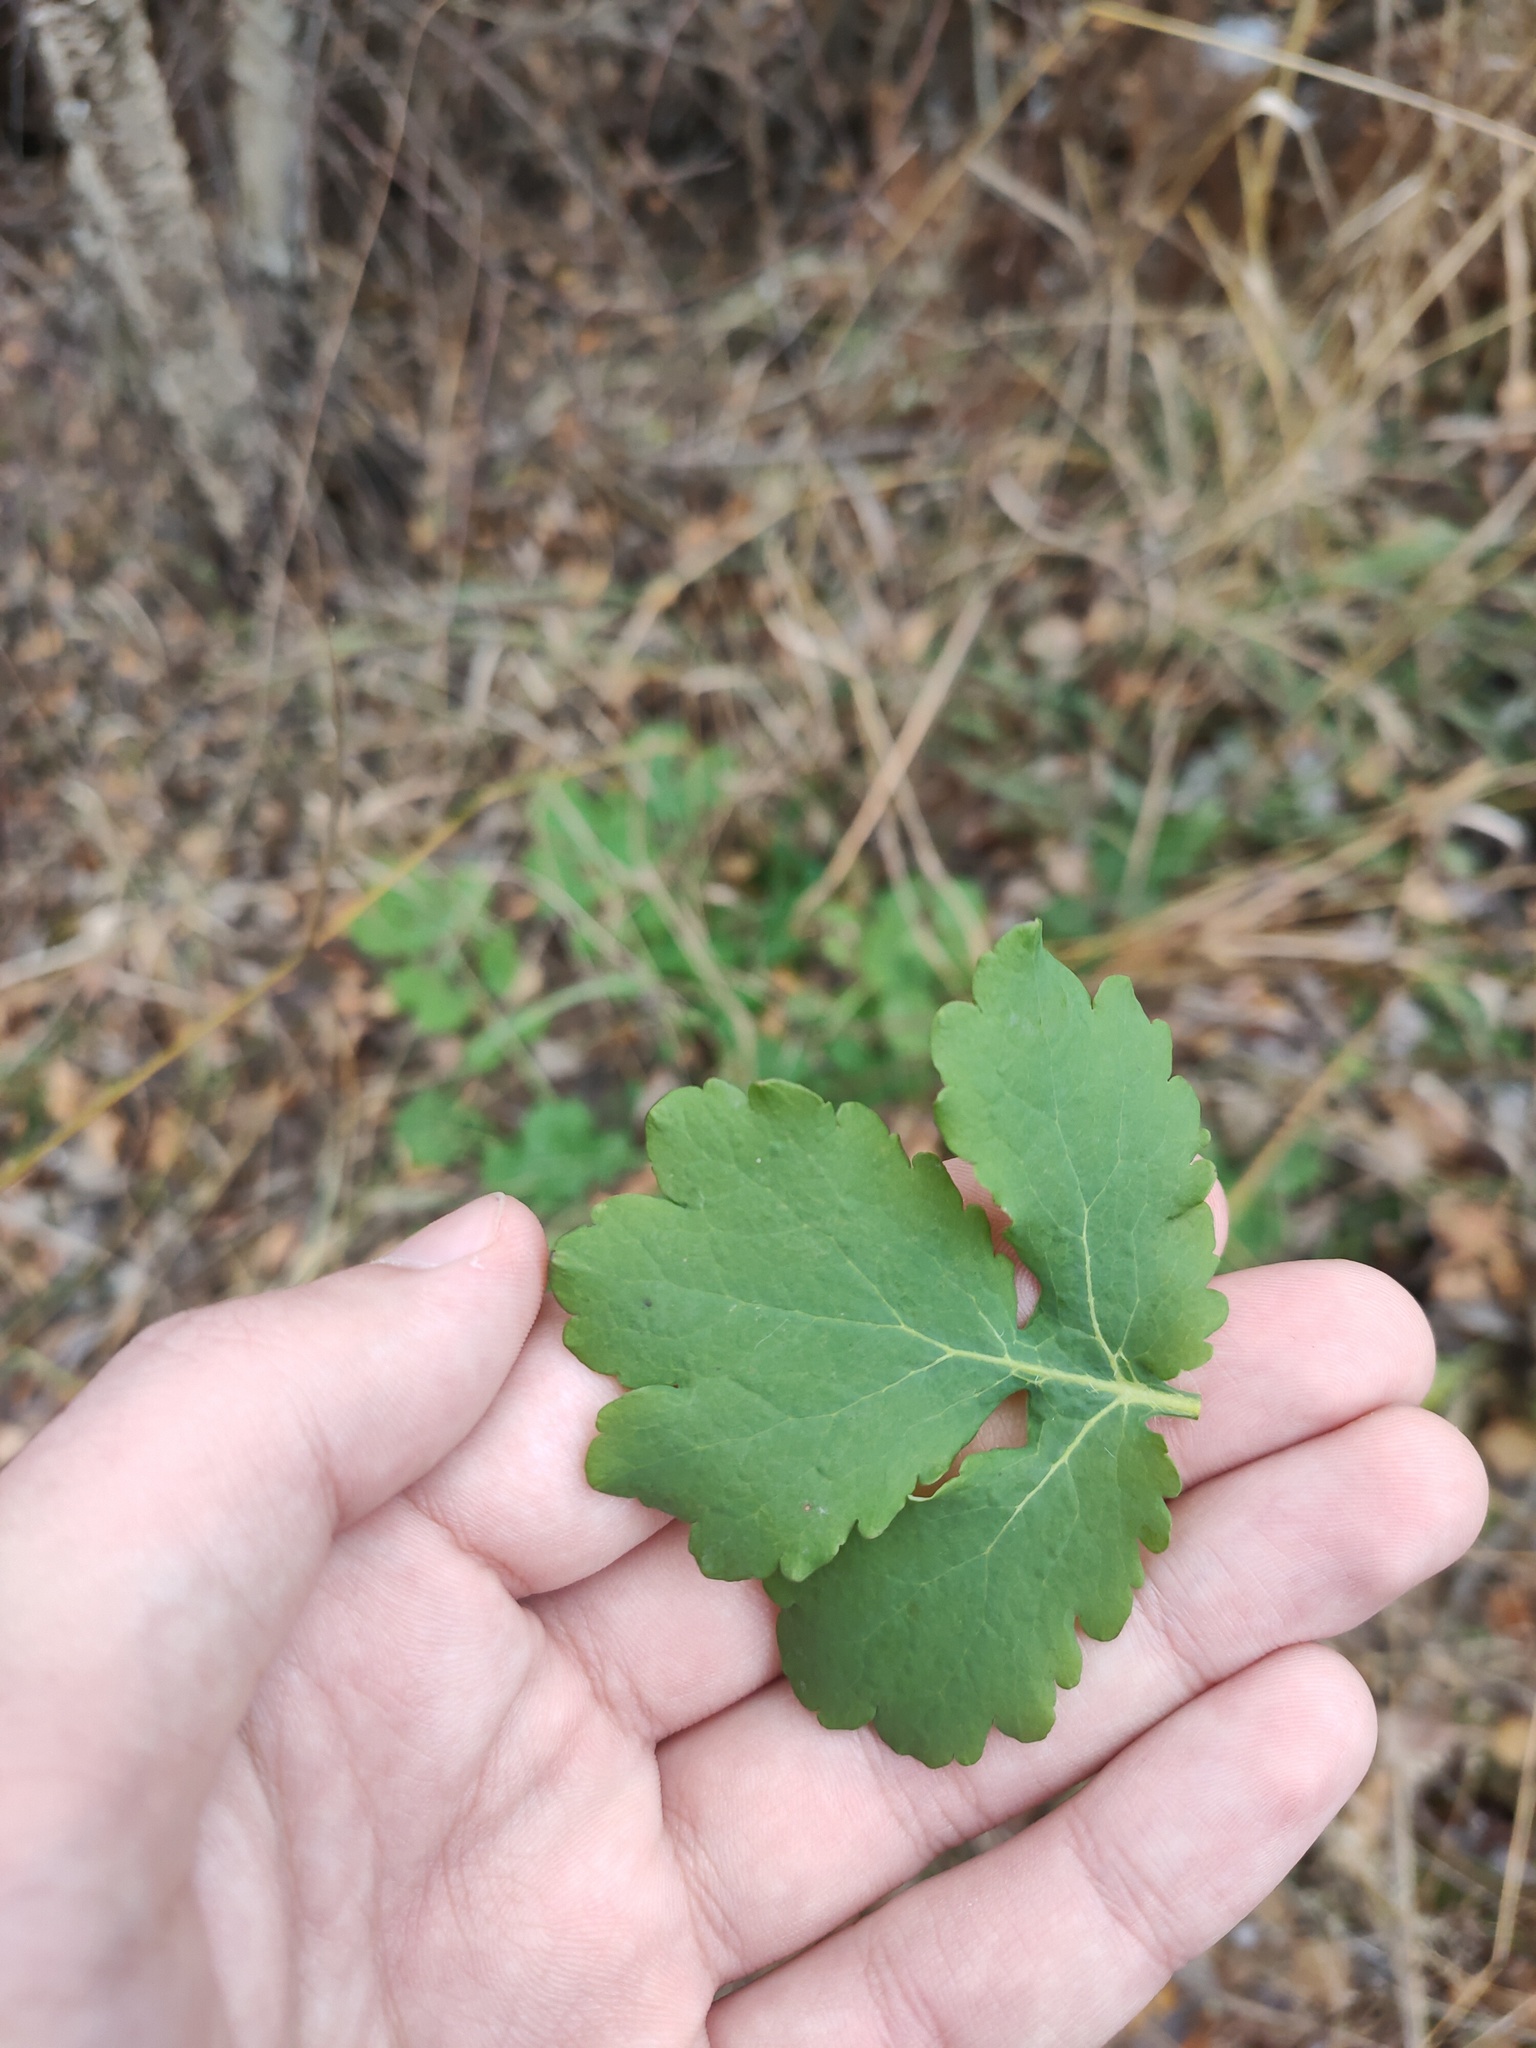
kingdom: Plantae
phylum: Tracheophyta
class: Magnoliopsida
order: Ranunculales
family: Papaveraceae
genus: Chelidonium
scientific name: Chelidonium majus
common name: Greater celandine
